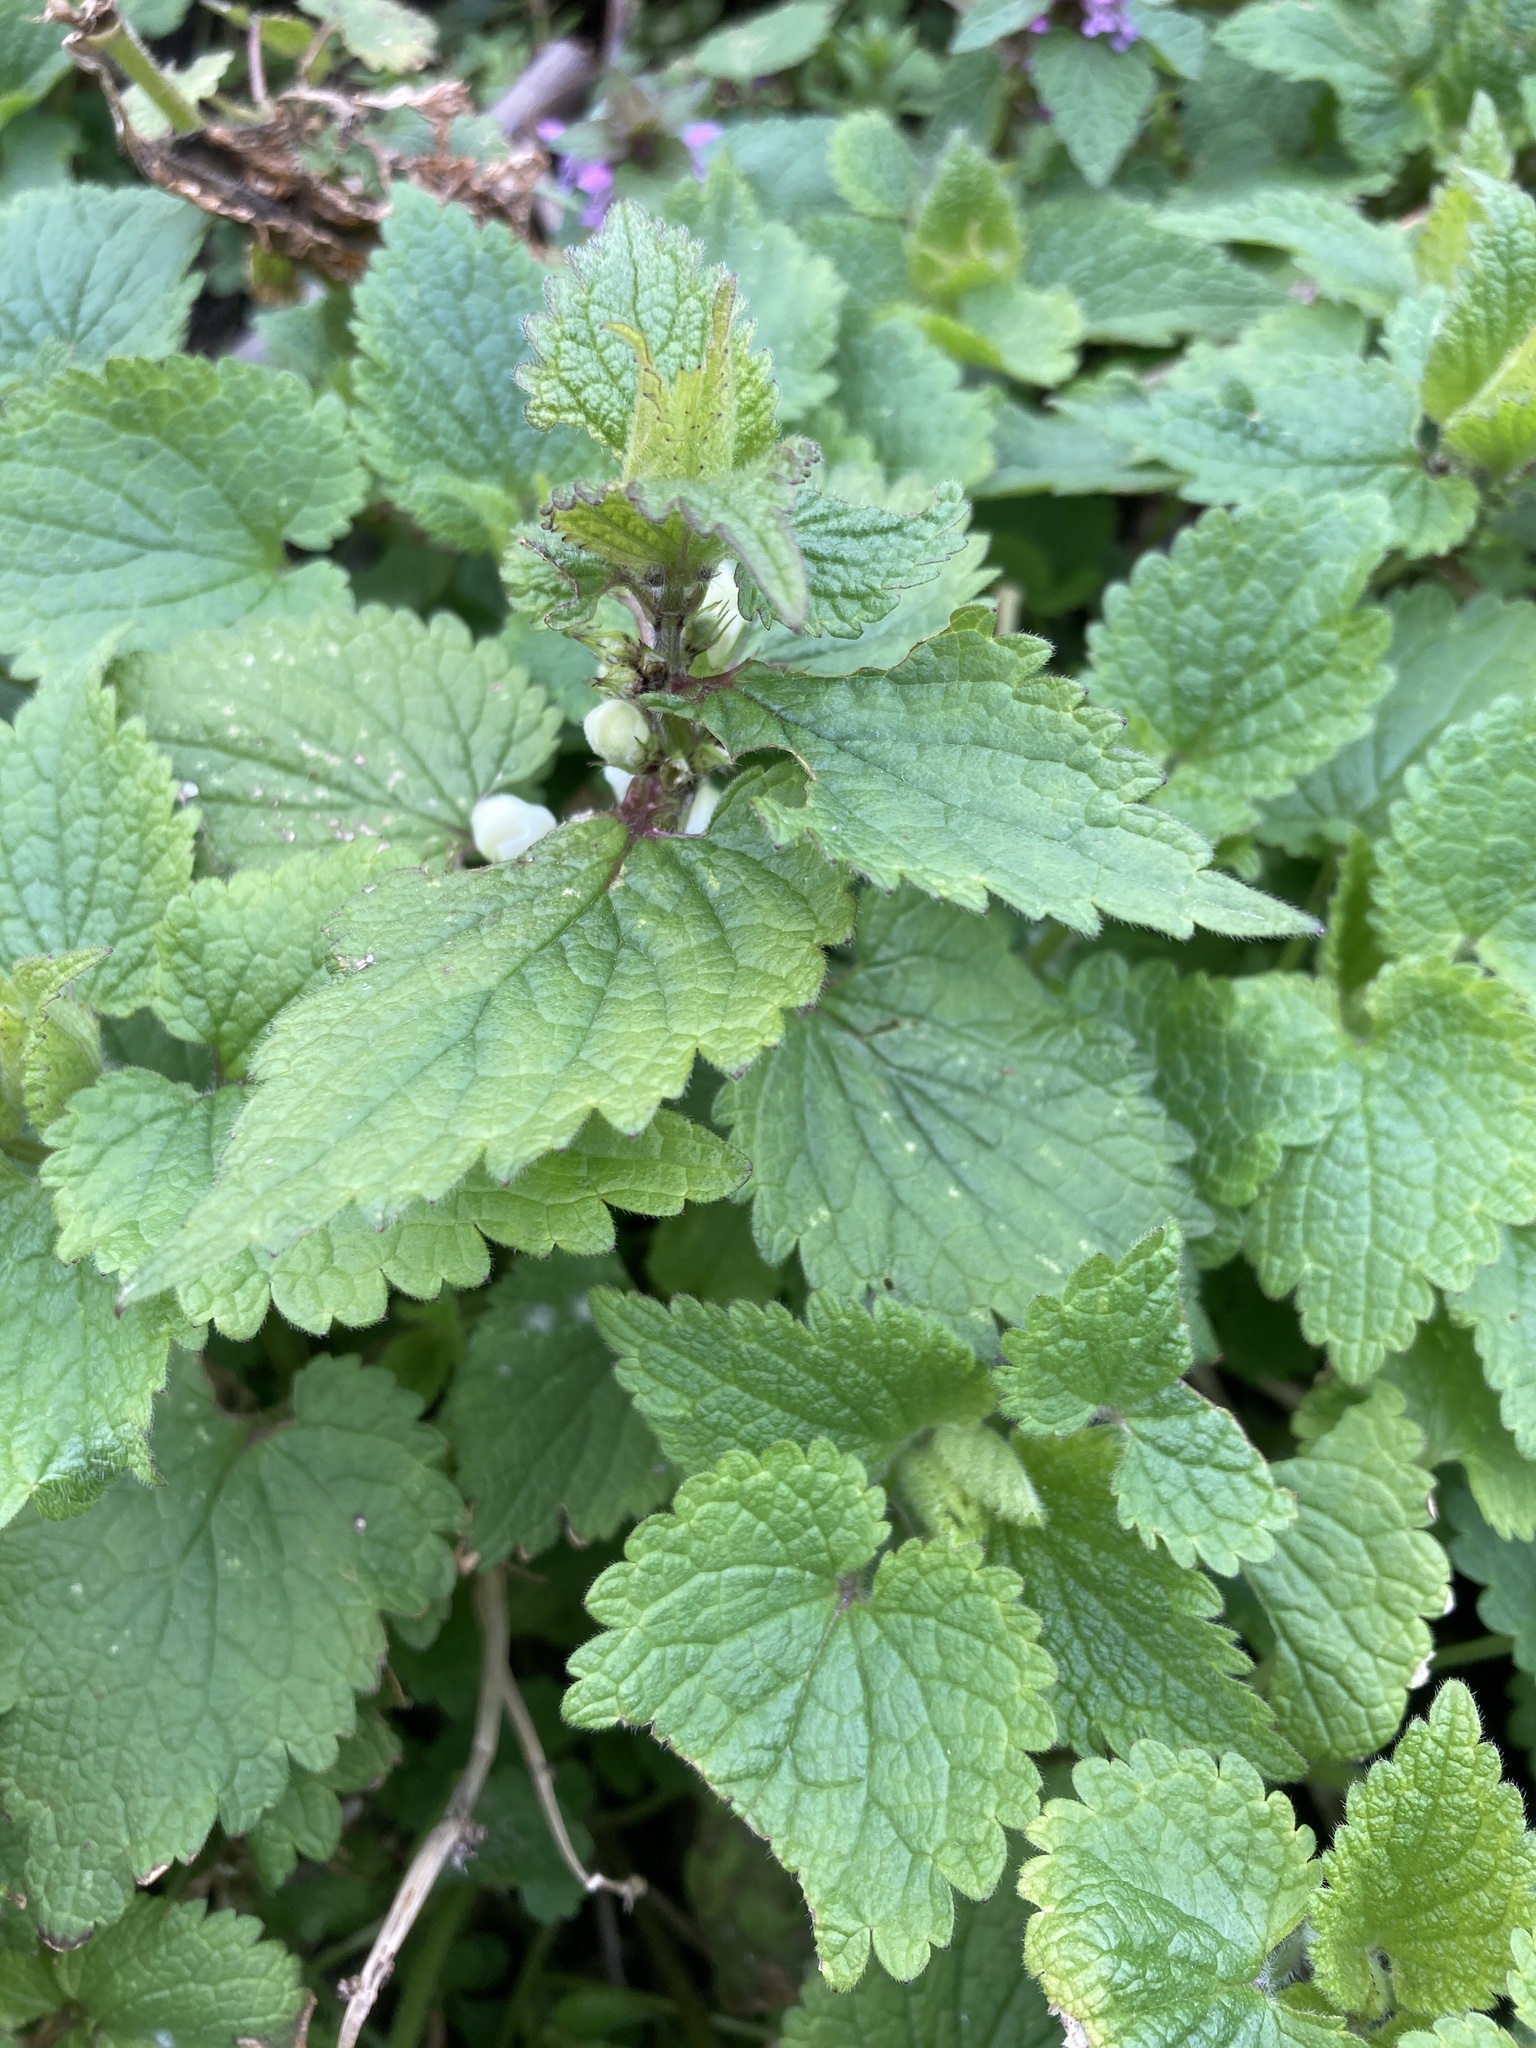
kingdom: Plantae
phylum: Tracheophyta
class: Magnoliopsida
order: Lamiales
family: Lamiaceae
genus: Lamium
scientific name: Lamium album
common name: White dead-nettle
